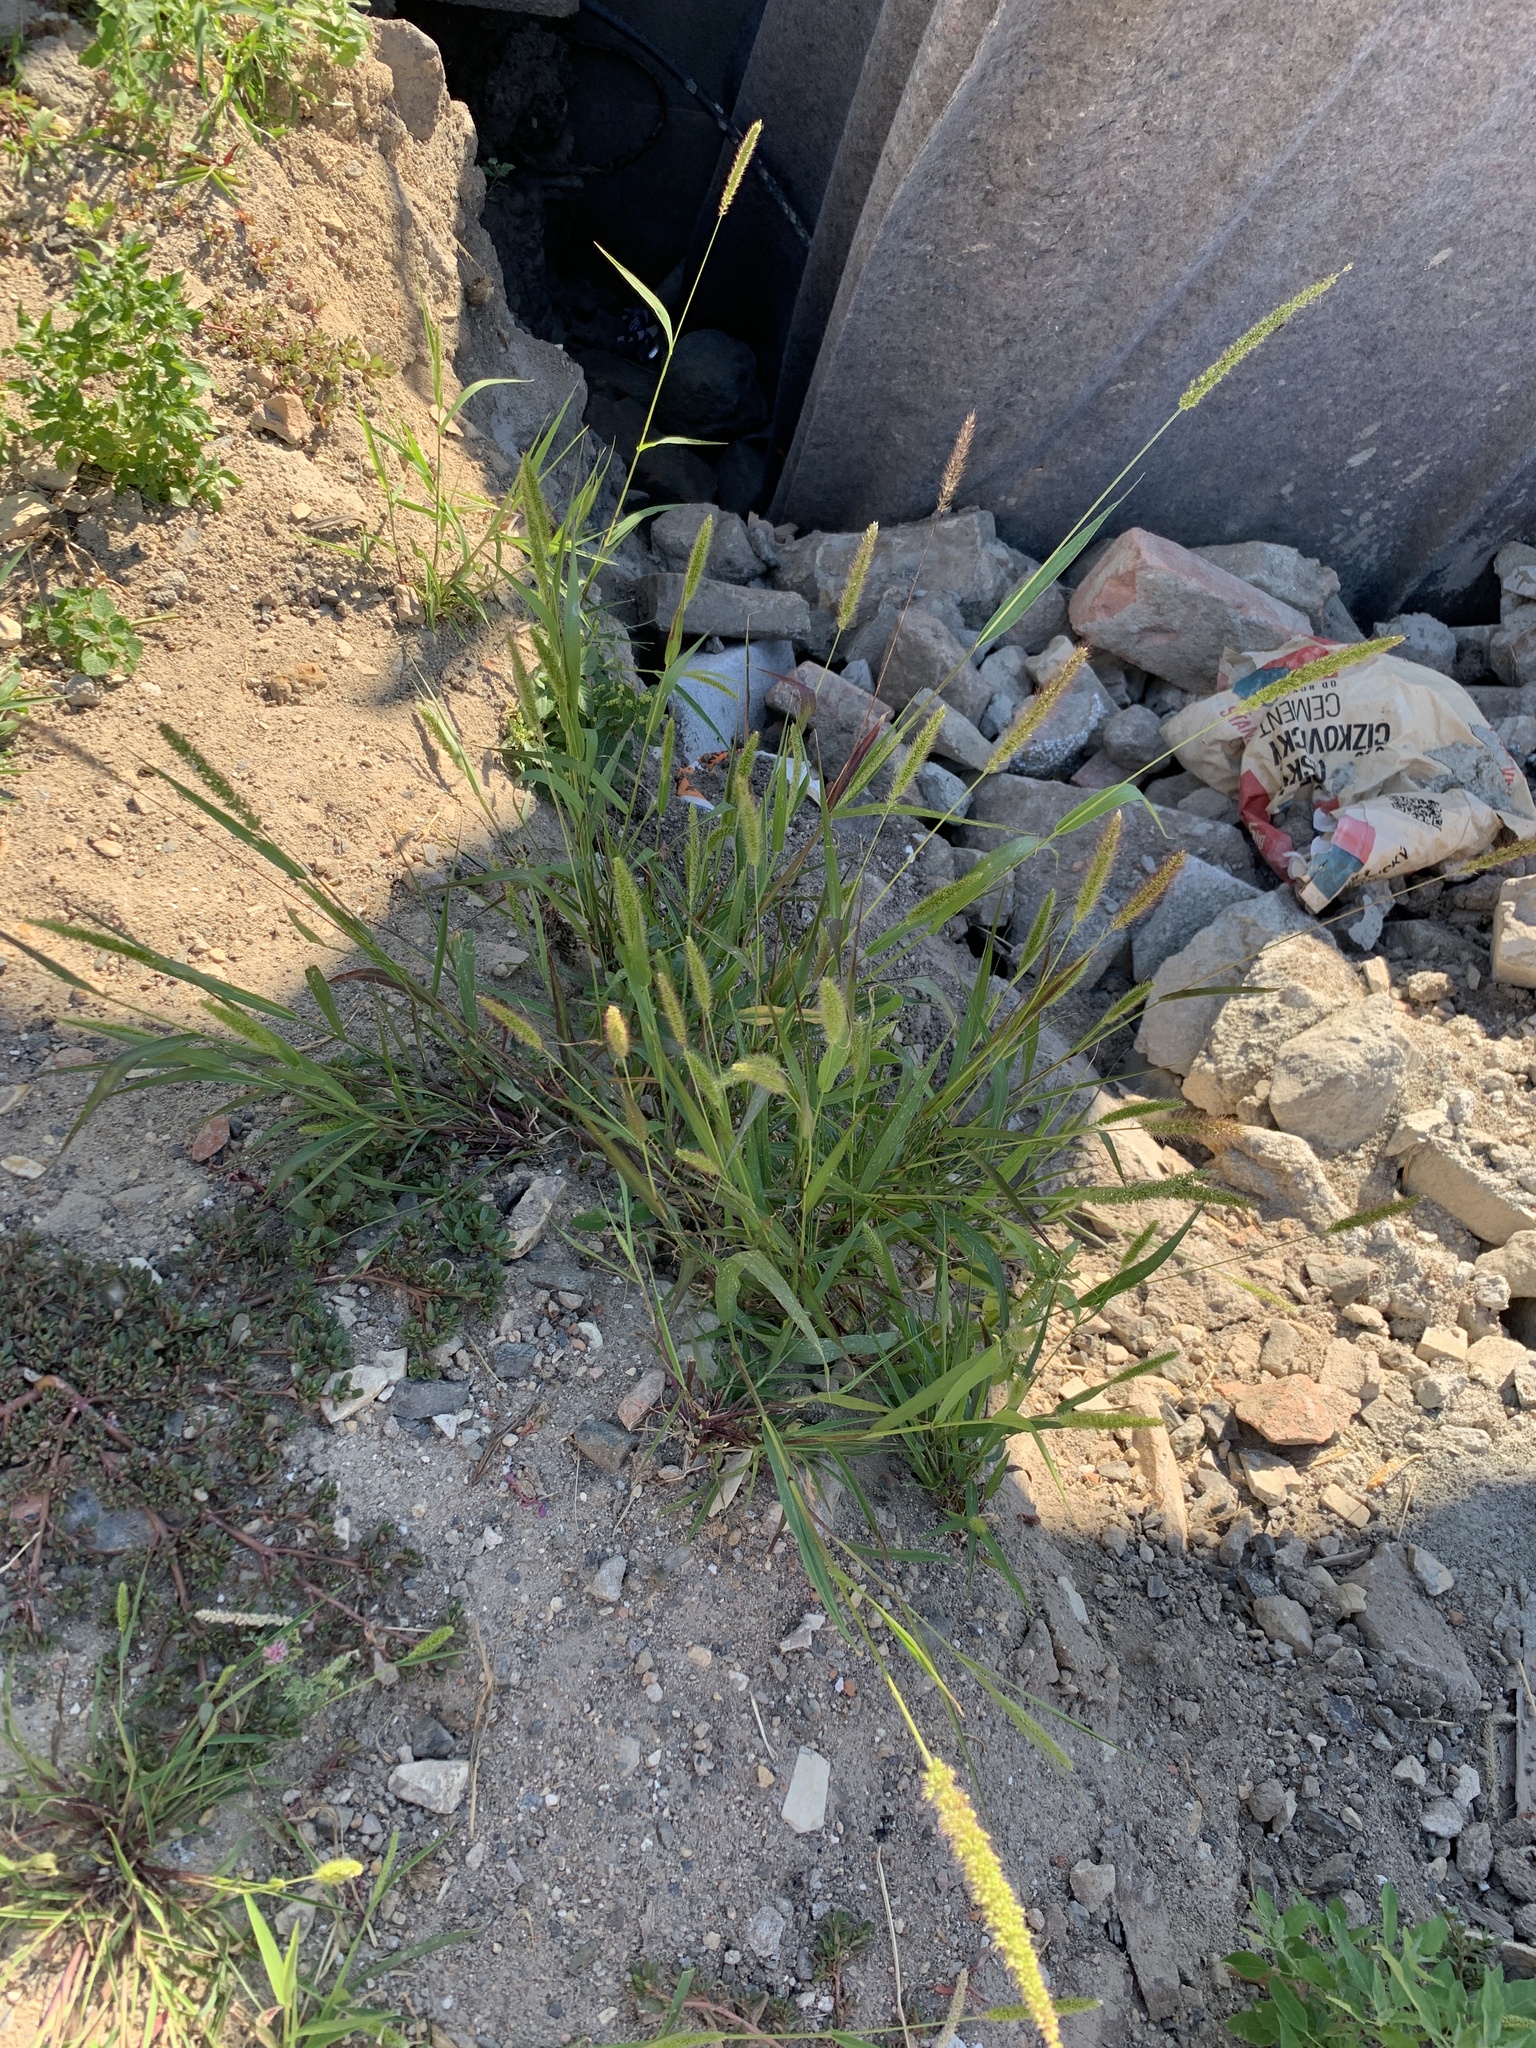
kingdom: Plantae
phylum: Tracheophyta
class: Liliopsida
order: Poales
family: Poaceae
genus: Setaria
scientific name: Setaria viridis
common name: Green bristlegrass
